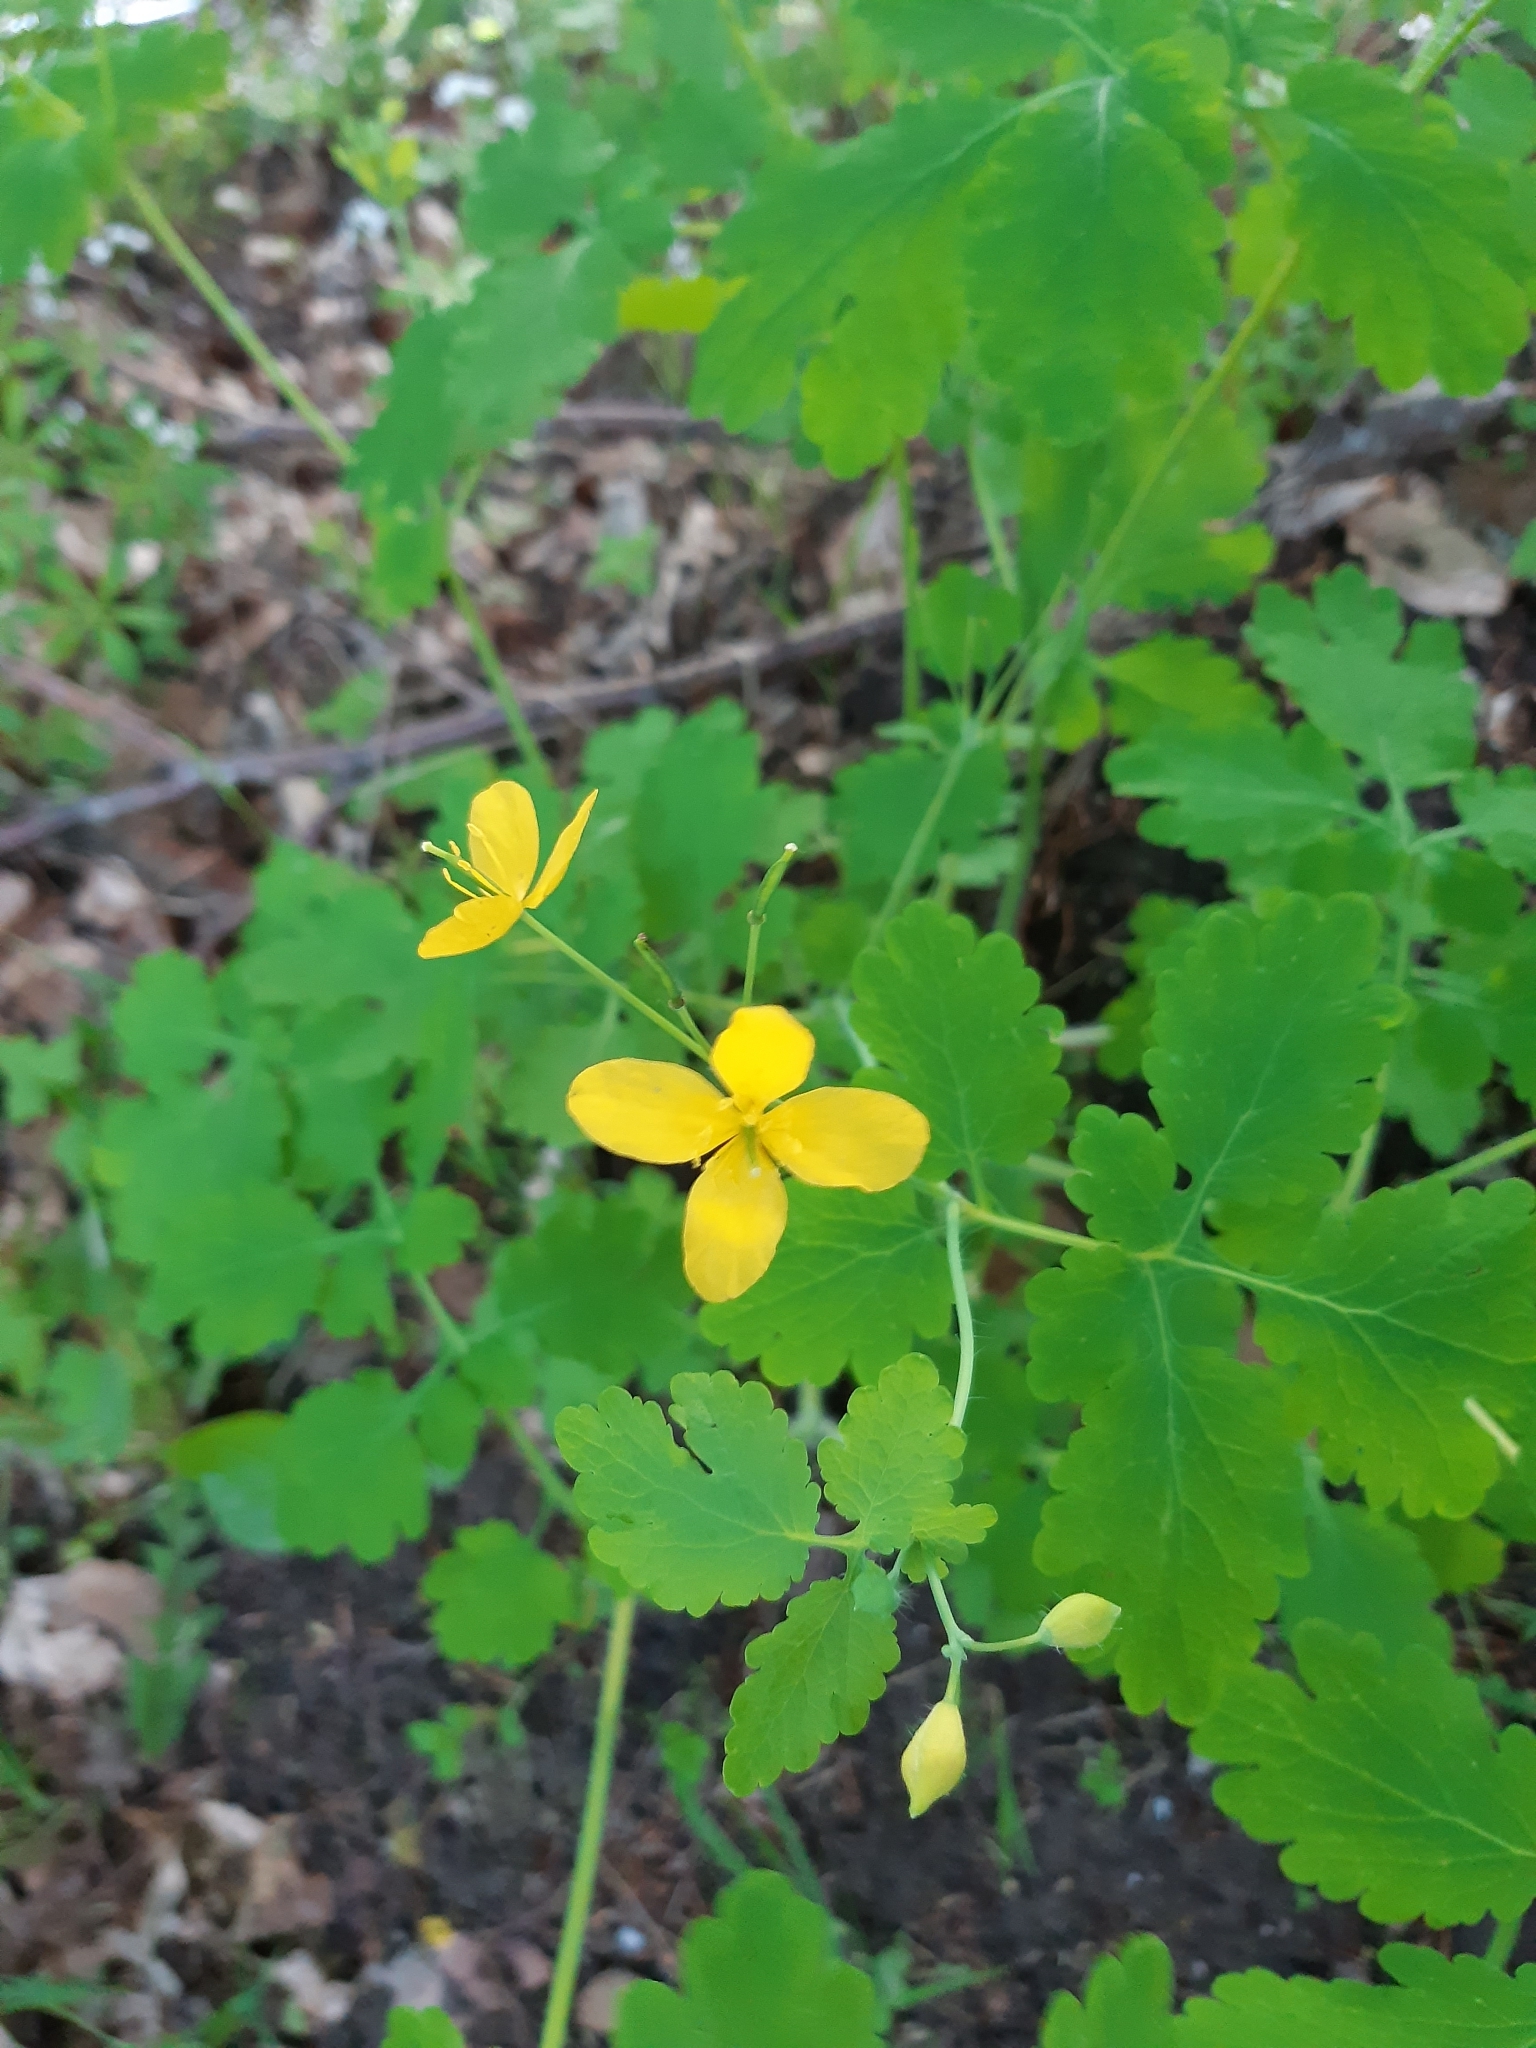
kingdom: Plantae
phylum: Tracheophyta
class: Magnoliopsida
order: Ranunculales
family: Papaveraceae
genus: Chelidonium
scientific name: Chelidonium majus
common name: Greater celandine
